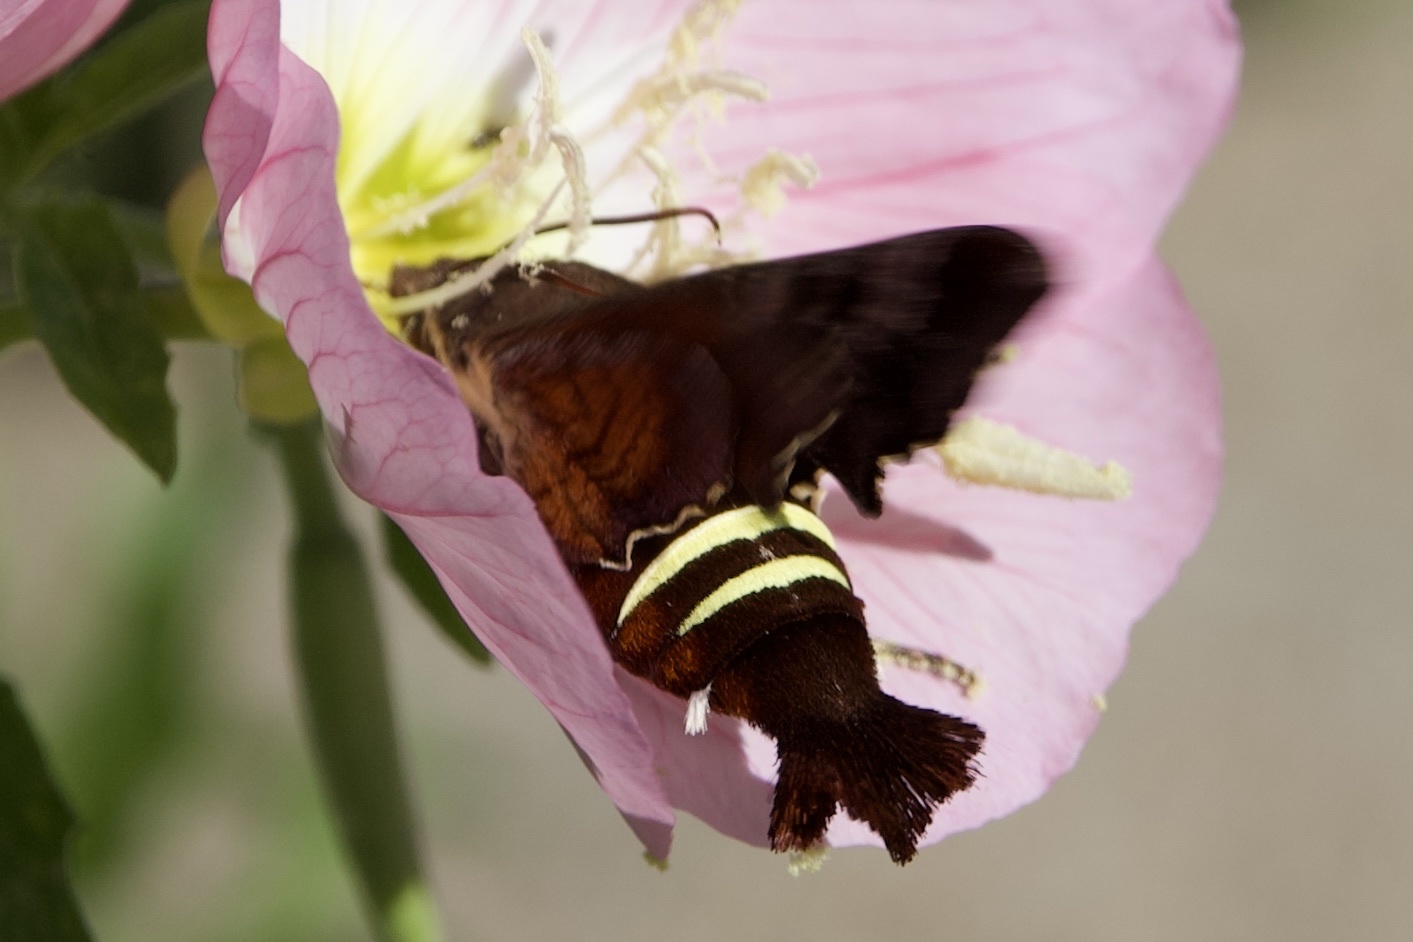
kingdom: Animalia
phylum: Arthropoda
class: Insecta
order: Lepidoptera
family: Sphingidae
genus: Amphion
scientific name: Amphion floridensis
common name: Nessus sphinx
